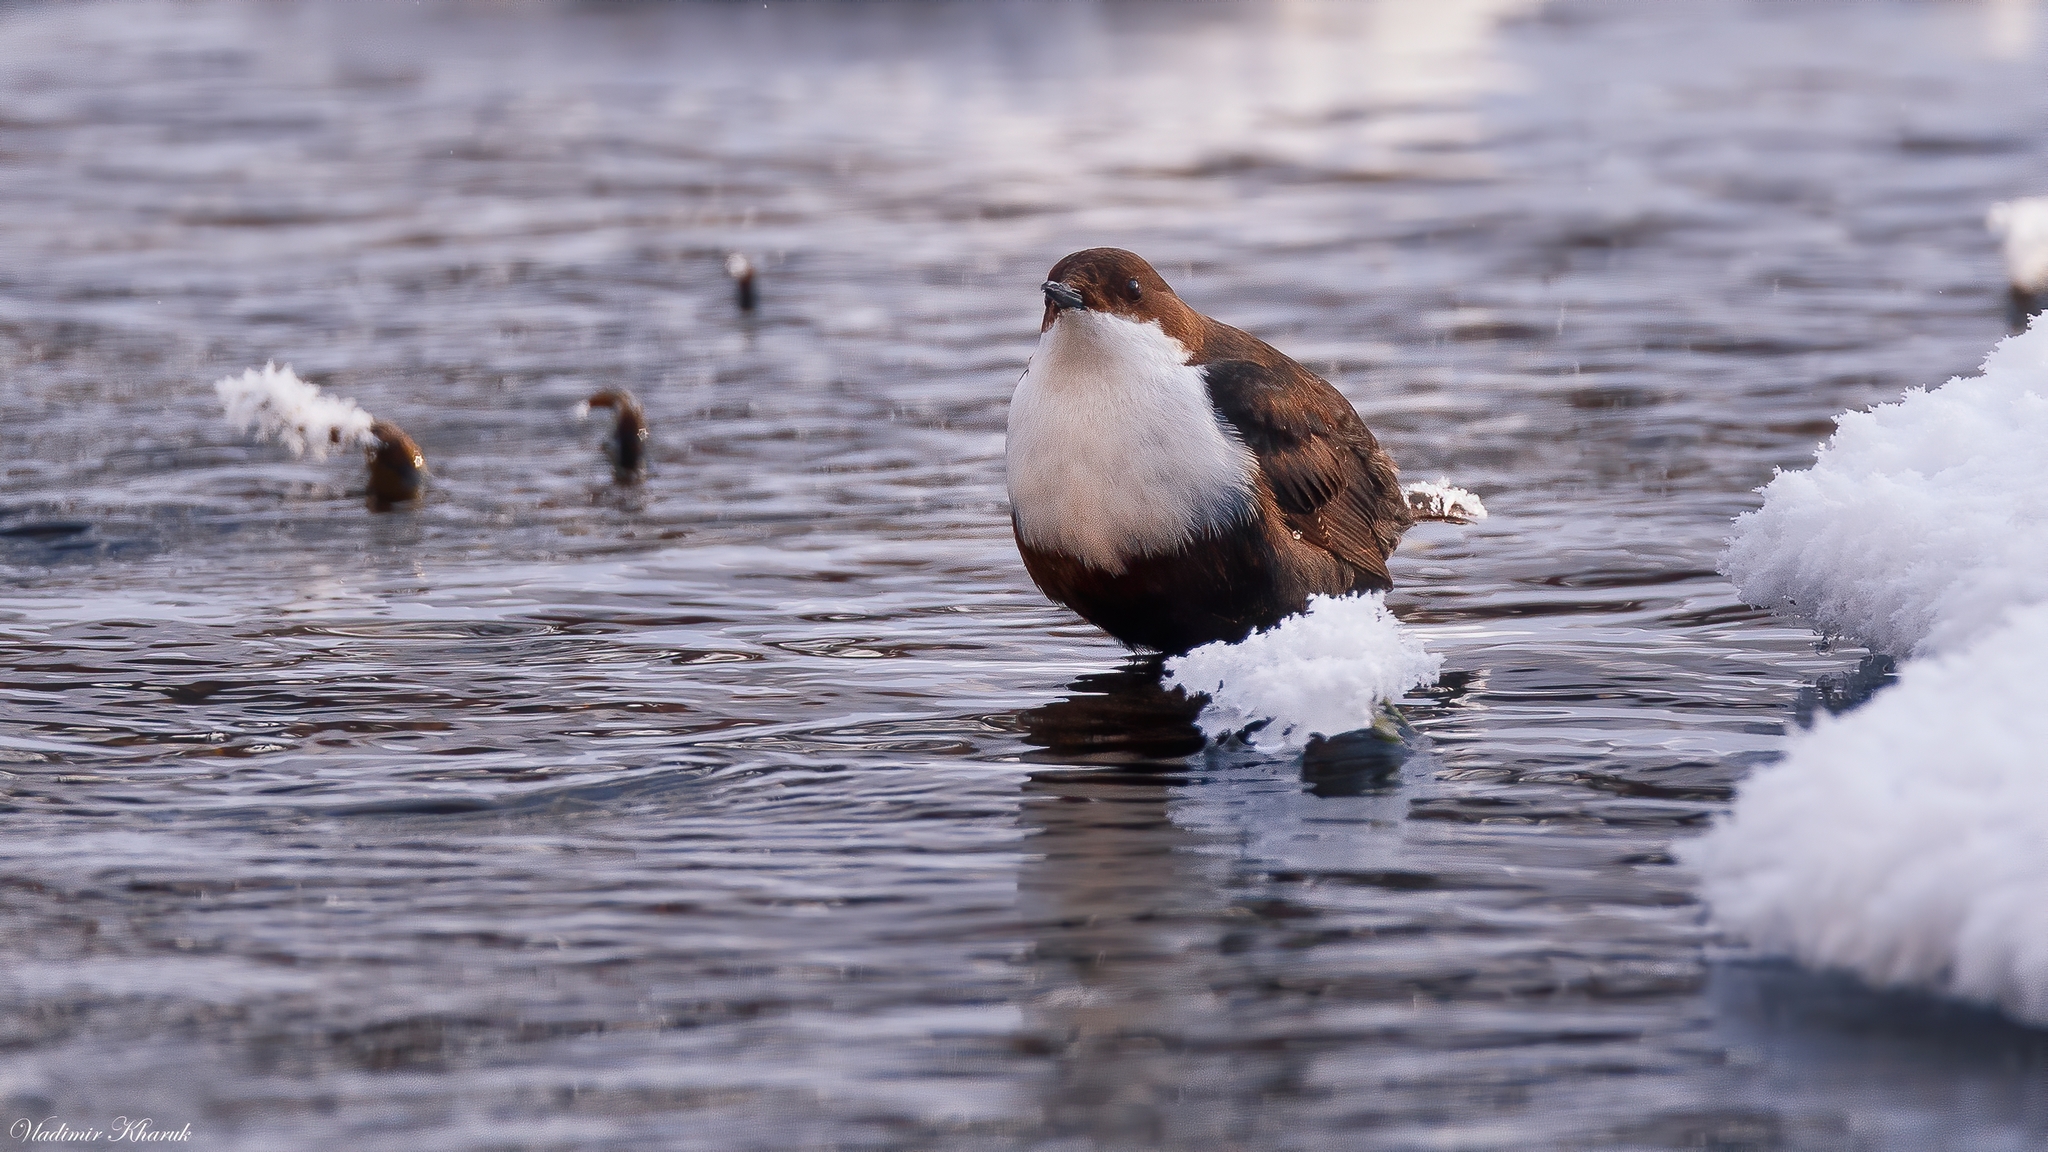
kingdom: Animalia
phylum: Chordata
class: Aves
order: Passeriformes
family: Cinclidae
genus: Cinclus
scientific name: Cinclus cinclus
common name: White-throated dipper
